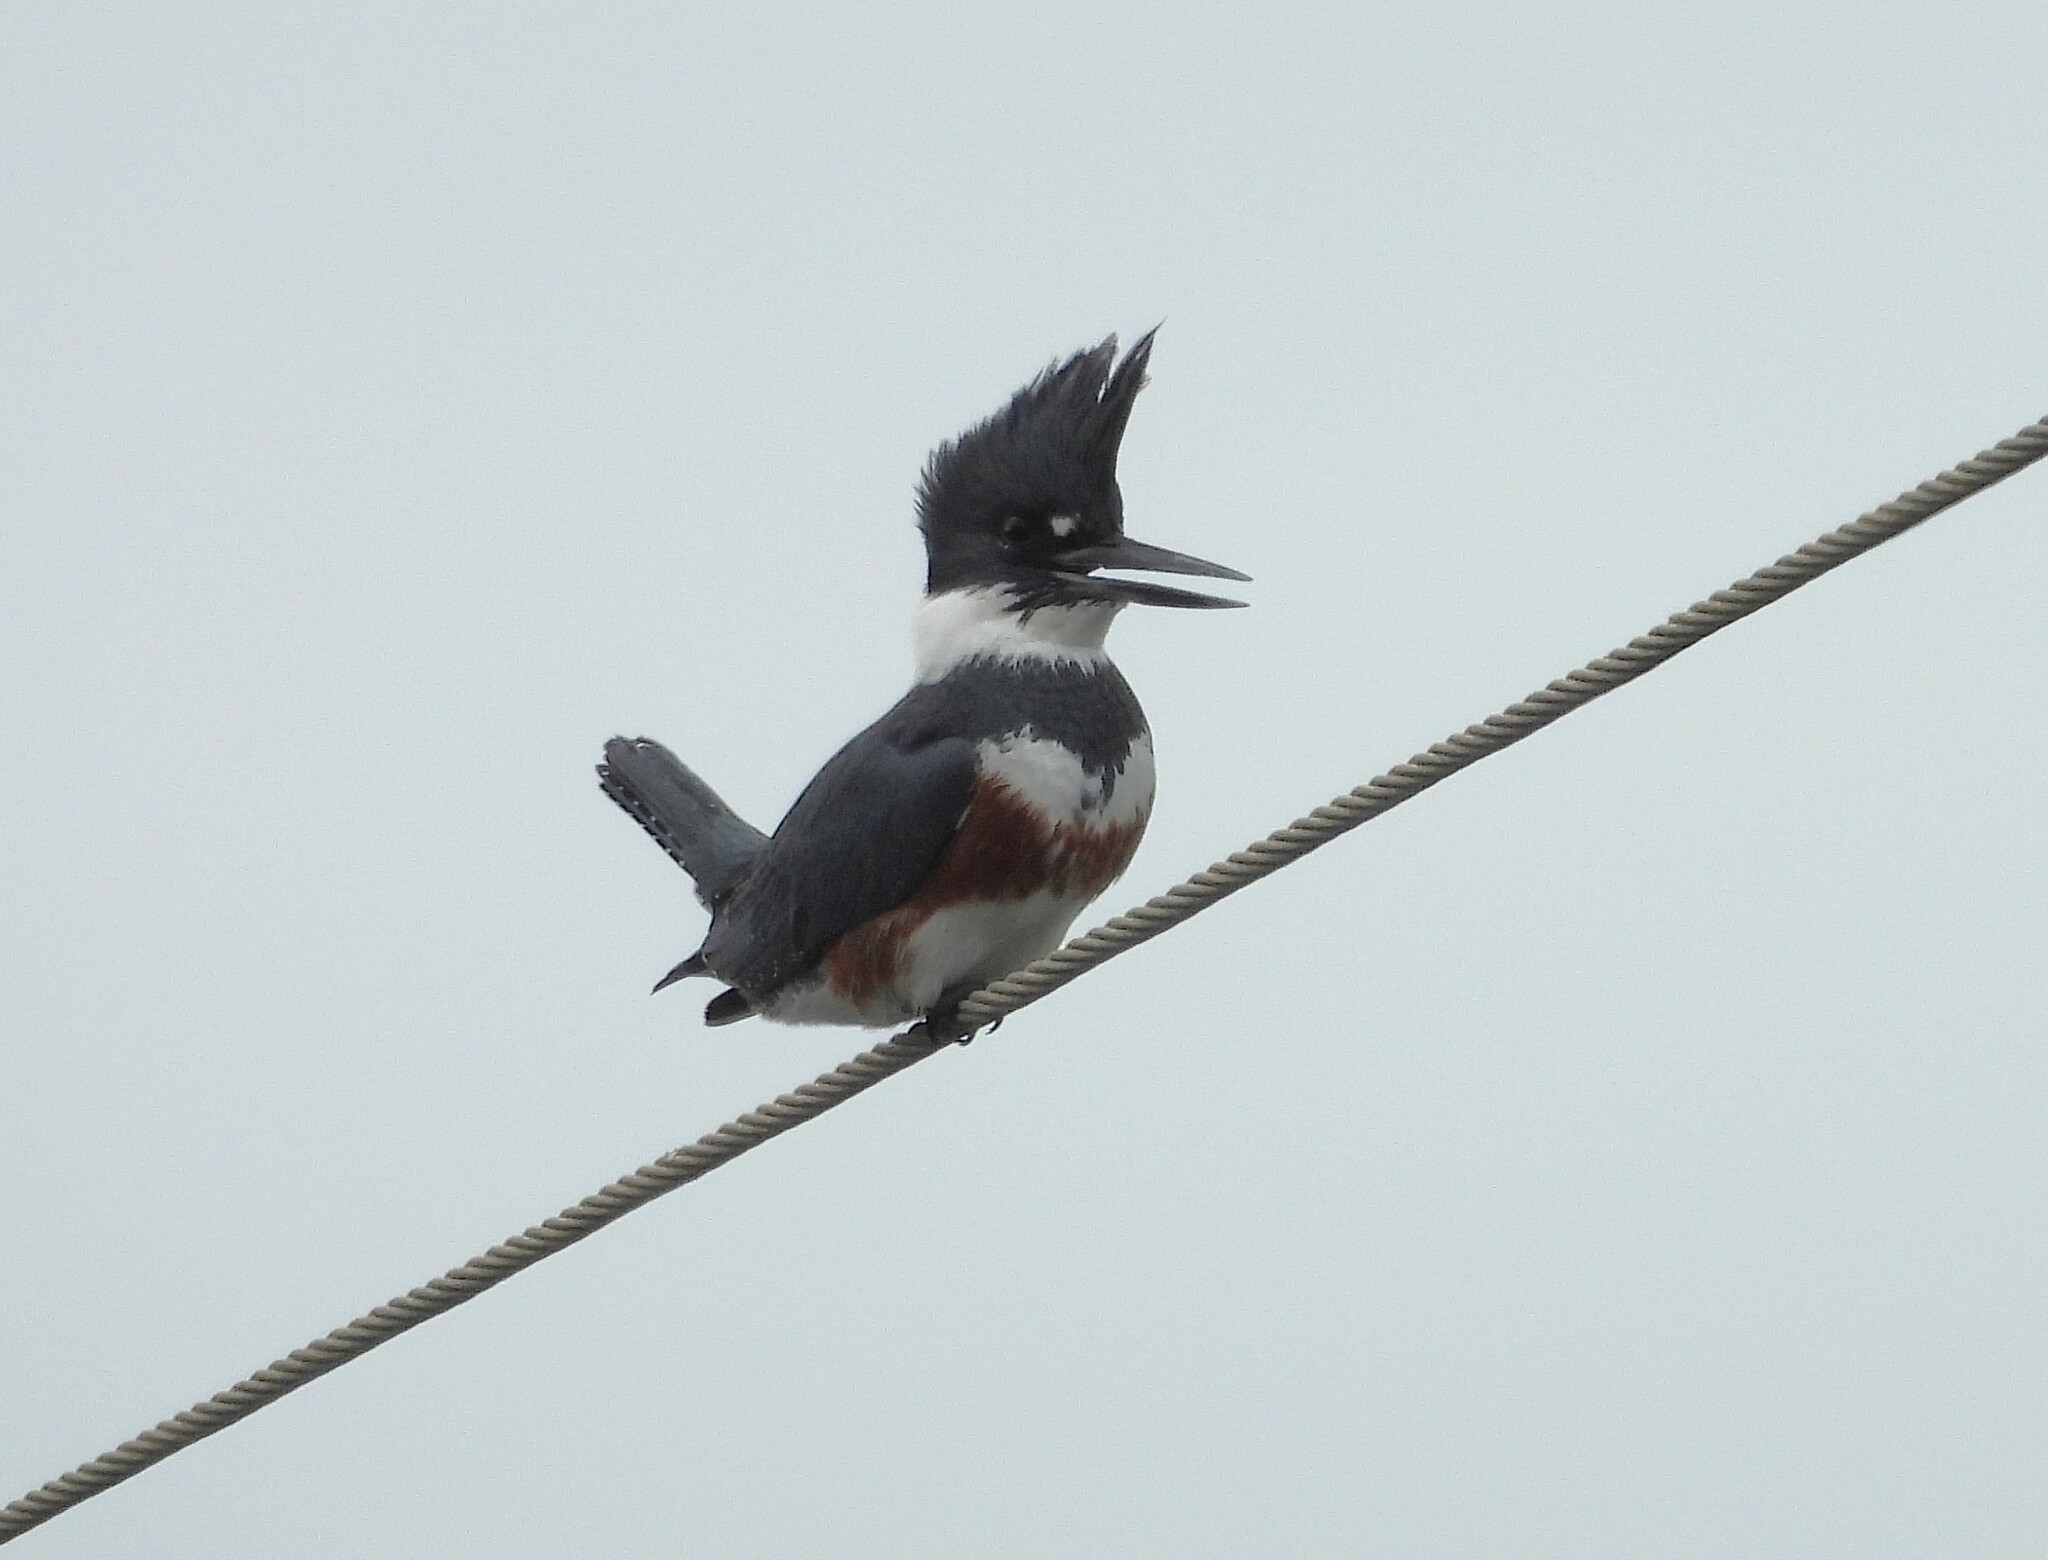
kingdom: Animalia
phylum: Chordata
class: Aves
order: Coraciiformes
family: Alcedinidae
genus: Megaceryle
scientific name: Megaceryle alcyon
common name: Belted kingfisher
